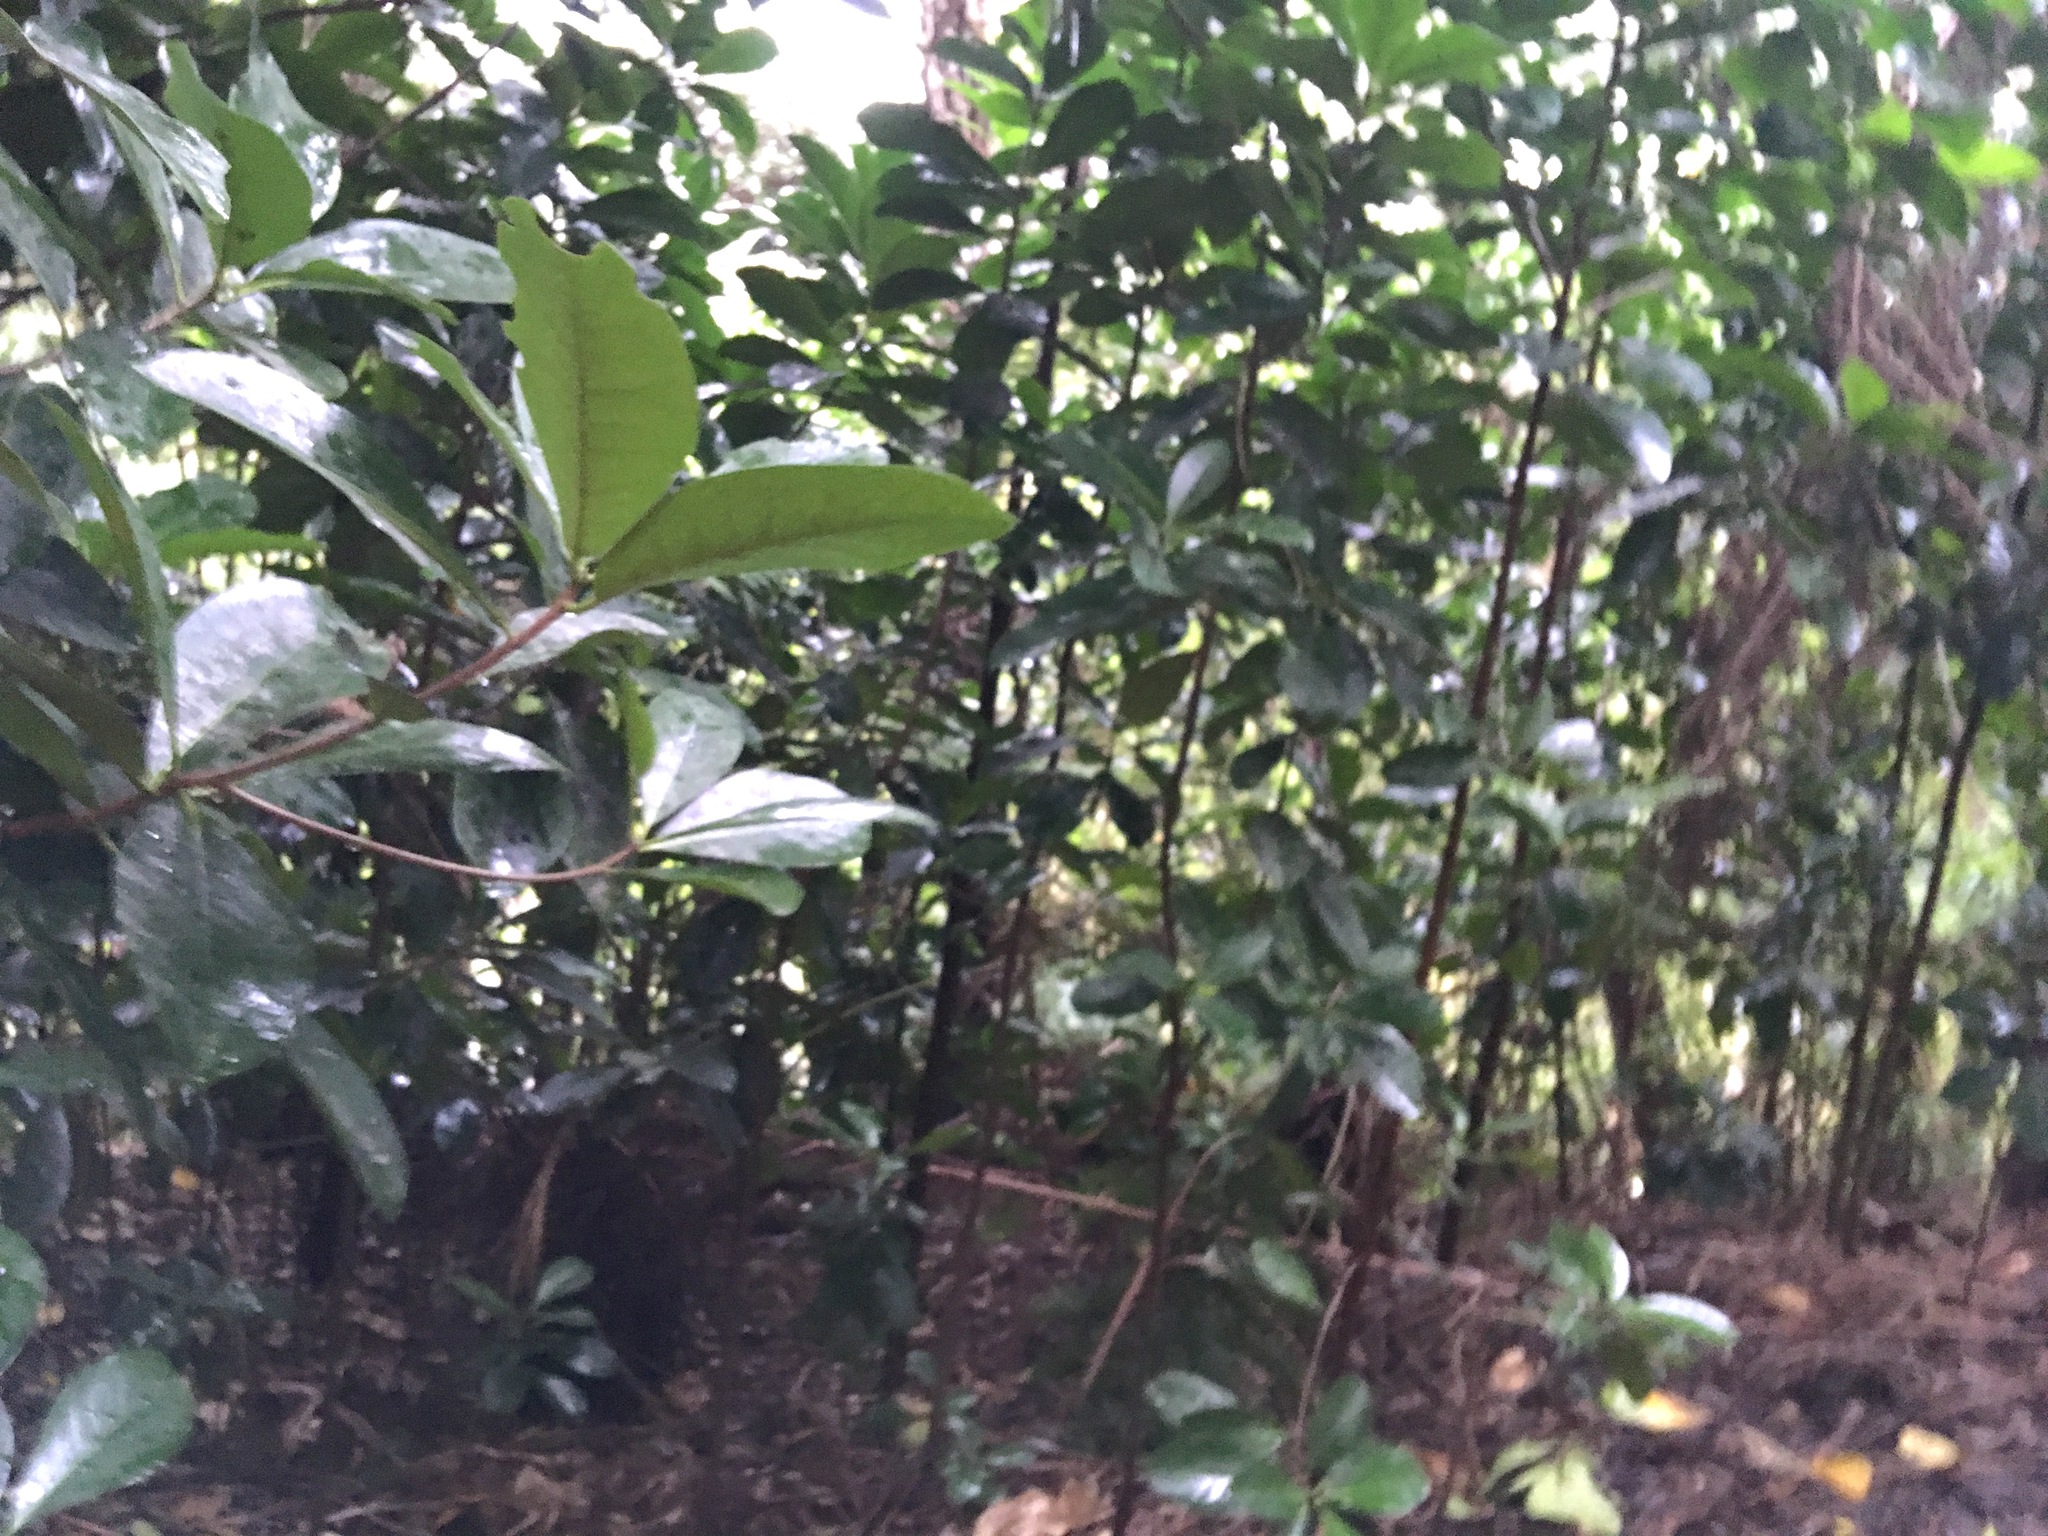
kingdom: Plantae
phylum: Tracheophyta
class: Magnoliopsida
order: Cucurbitales
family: Corynocarpaceae
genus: Corynocarpus
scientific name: Corynocarpus laevigatus
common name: New zealand laurel
